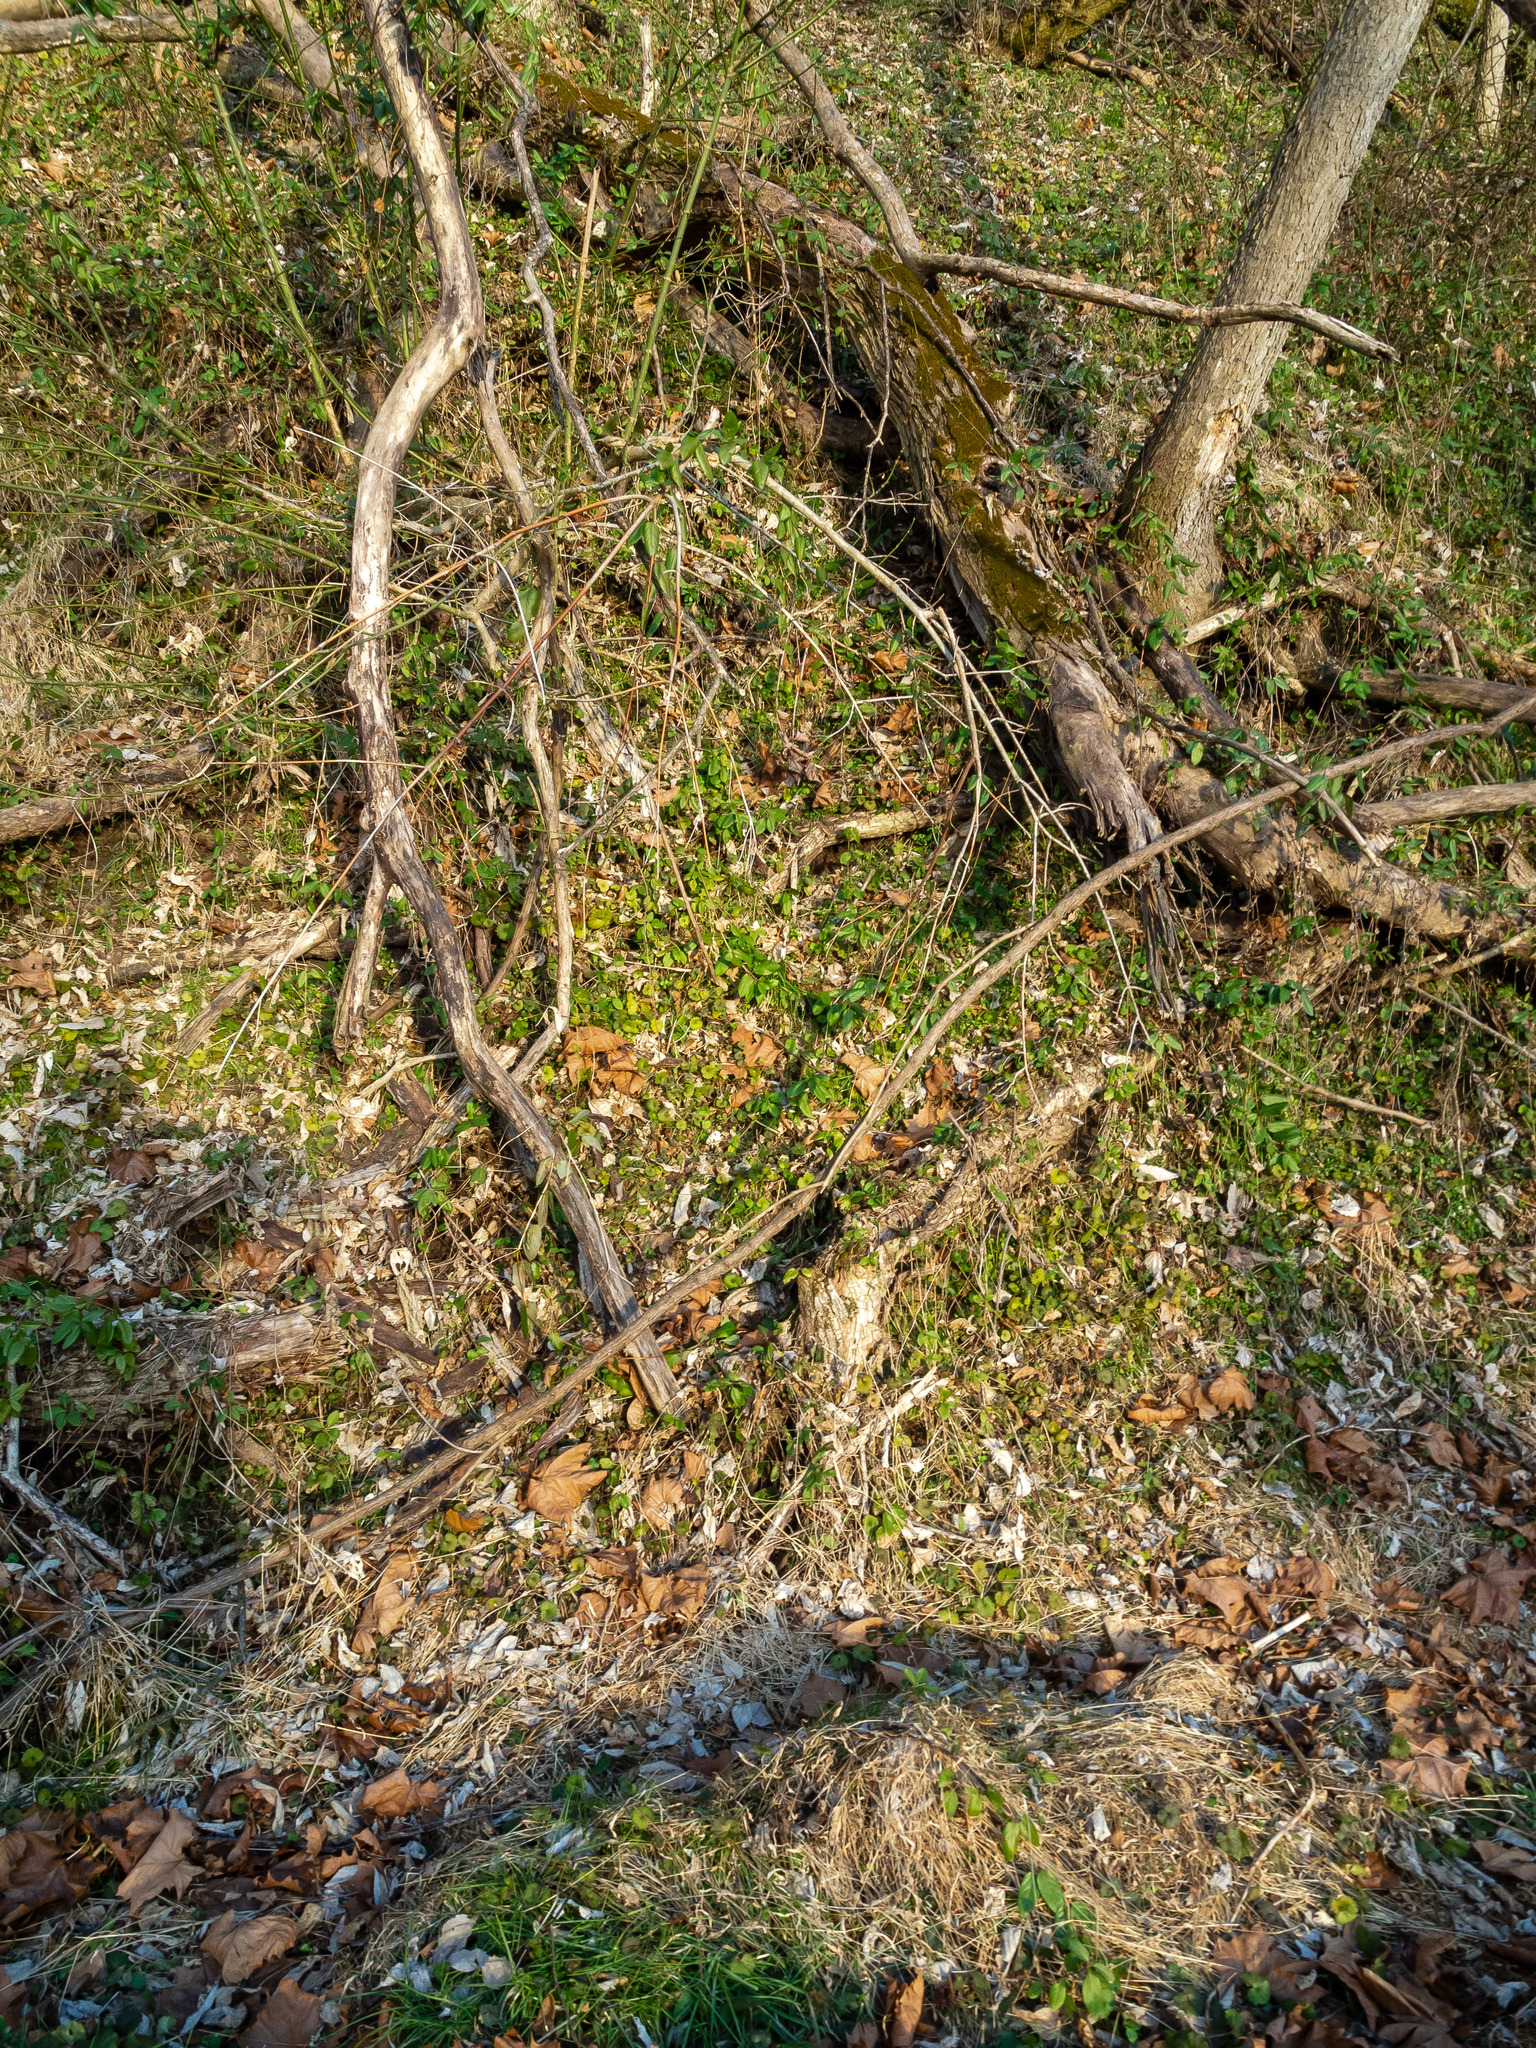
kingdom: Plantae
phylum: Tracheophyta
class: Magnoliopsida
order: Dipsacales
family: Caprifoliaceae
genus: Lonicera
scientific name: Lonicera japonica
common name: Japanese honeysuckle
